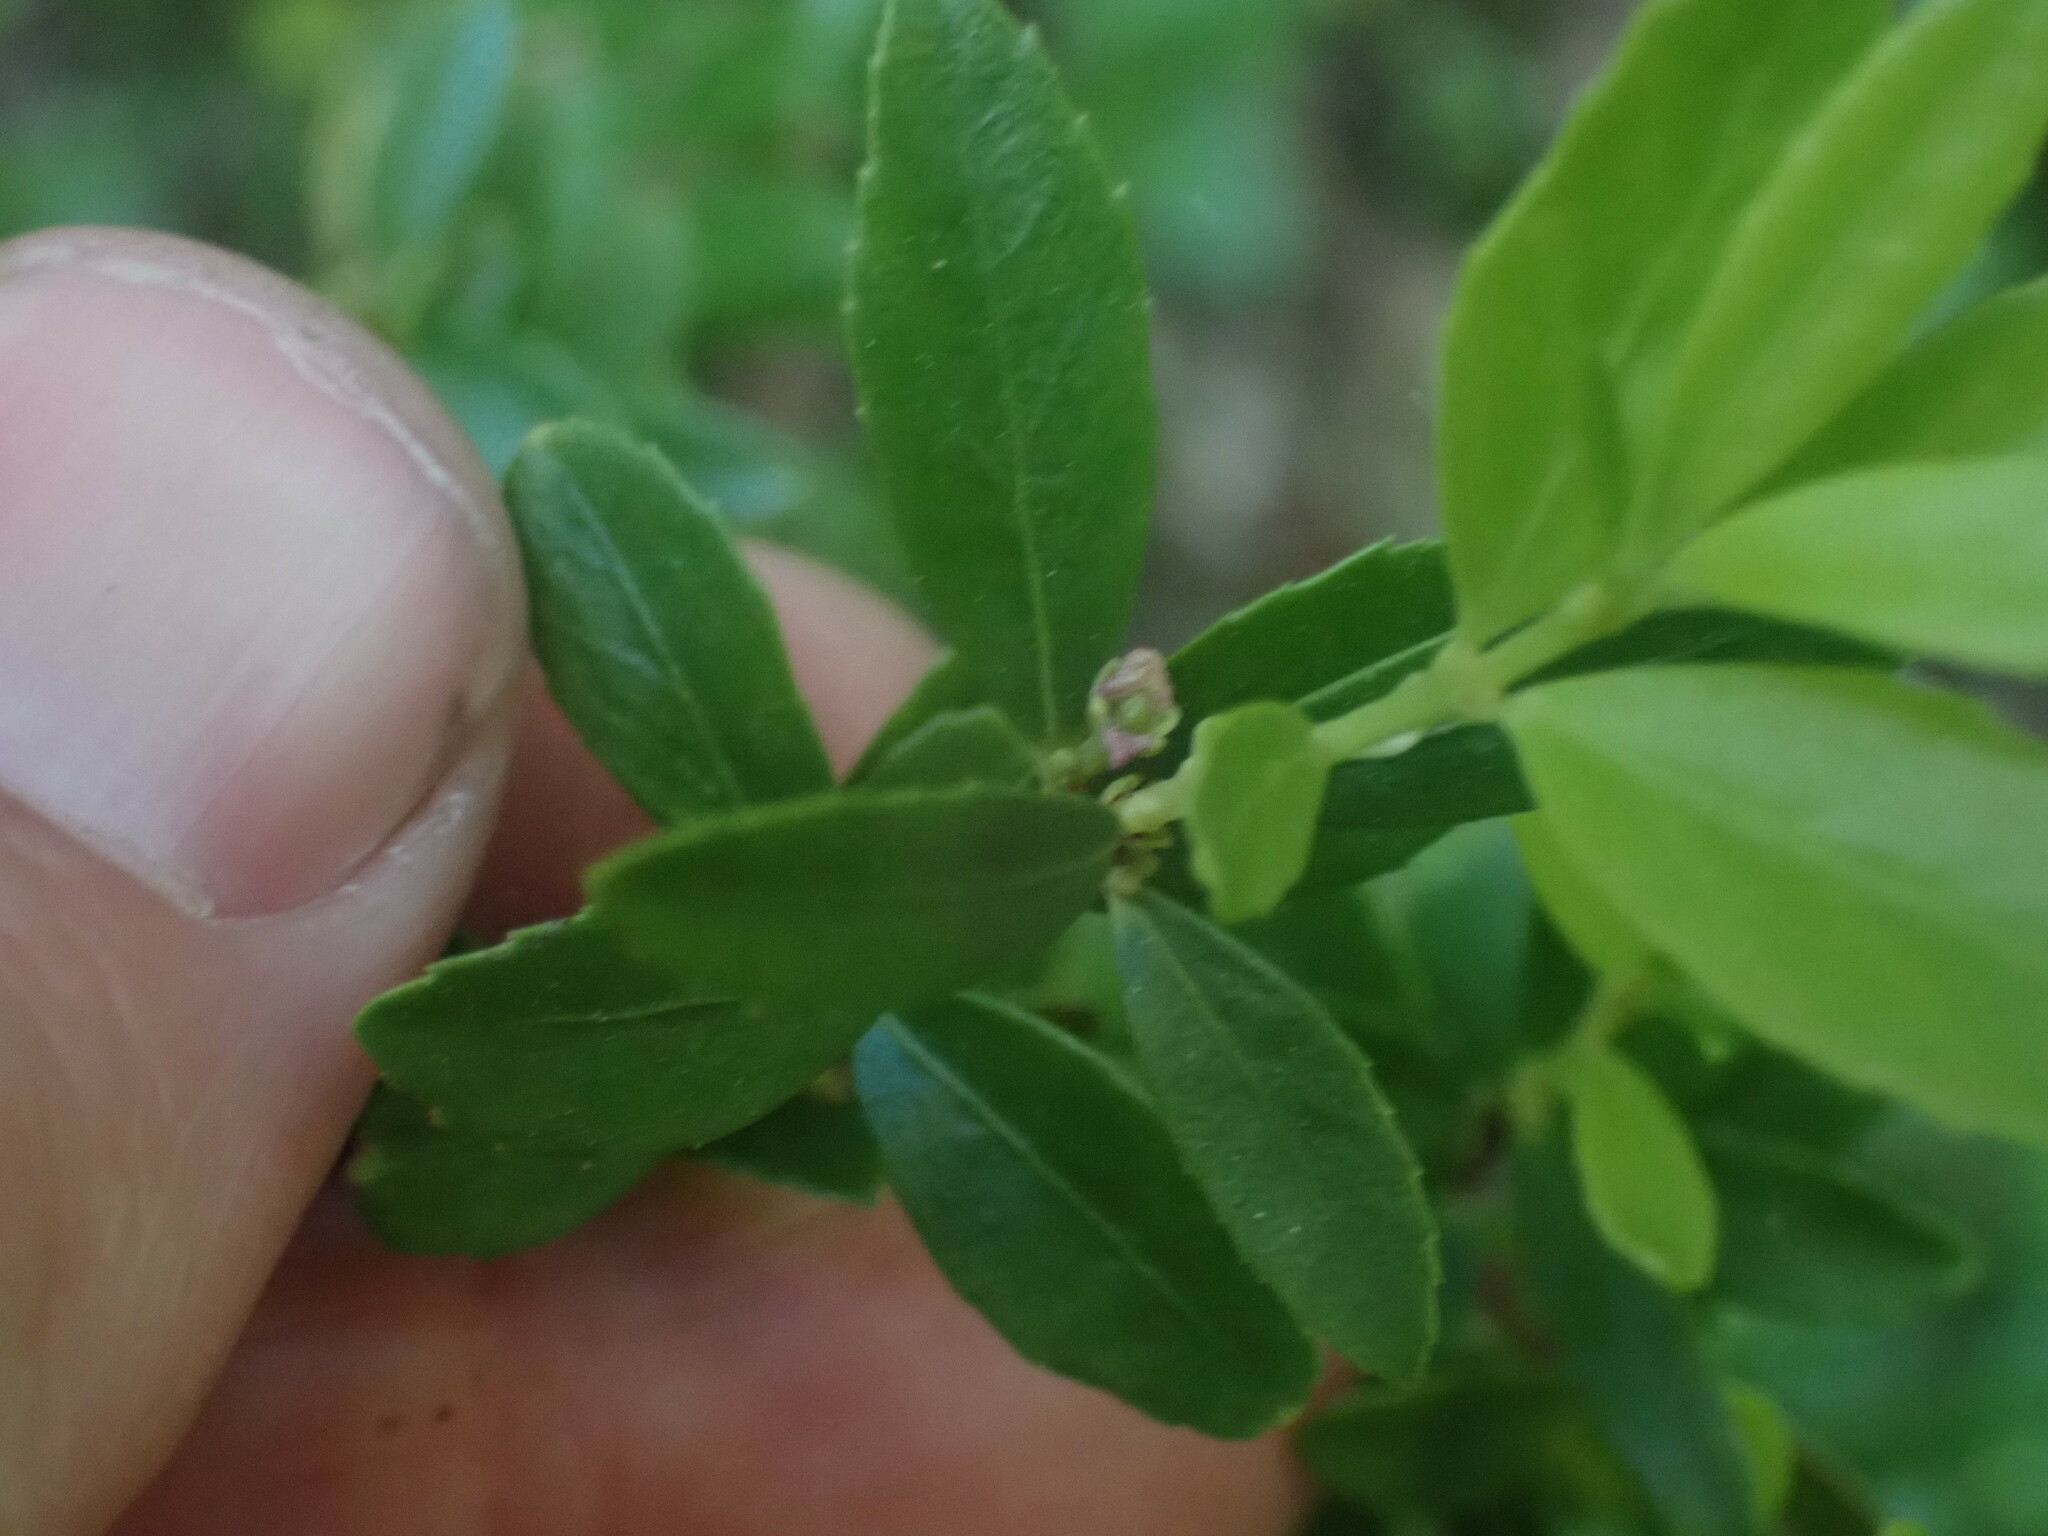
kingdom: Plantae
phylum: Tracheophyta
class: Magnoliopsida
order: Celastrales
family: Celastraceae
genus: Paxistima
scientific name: Paxistima myrsinites
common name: Mountain-lover
